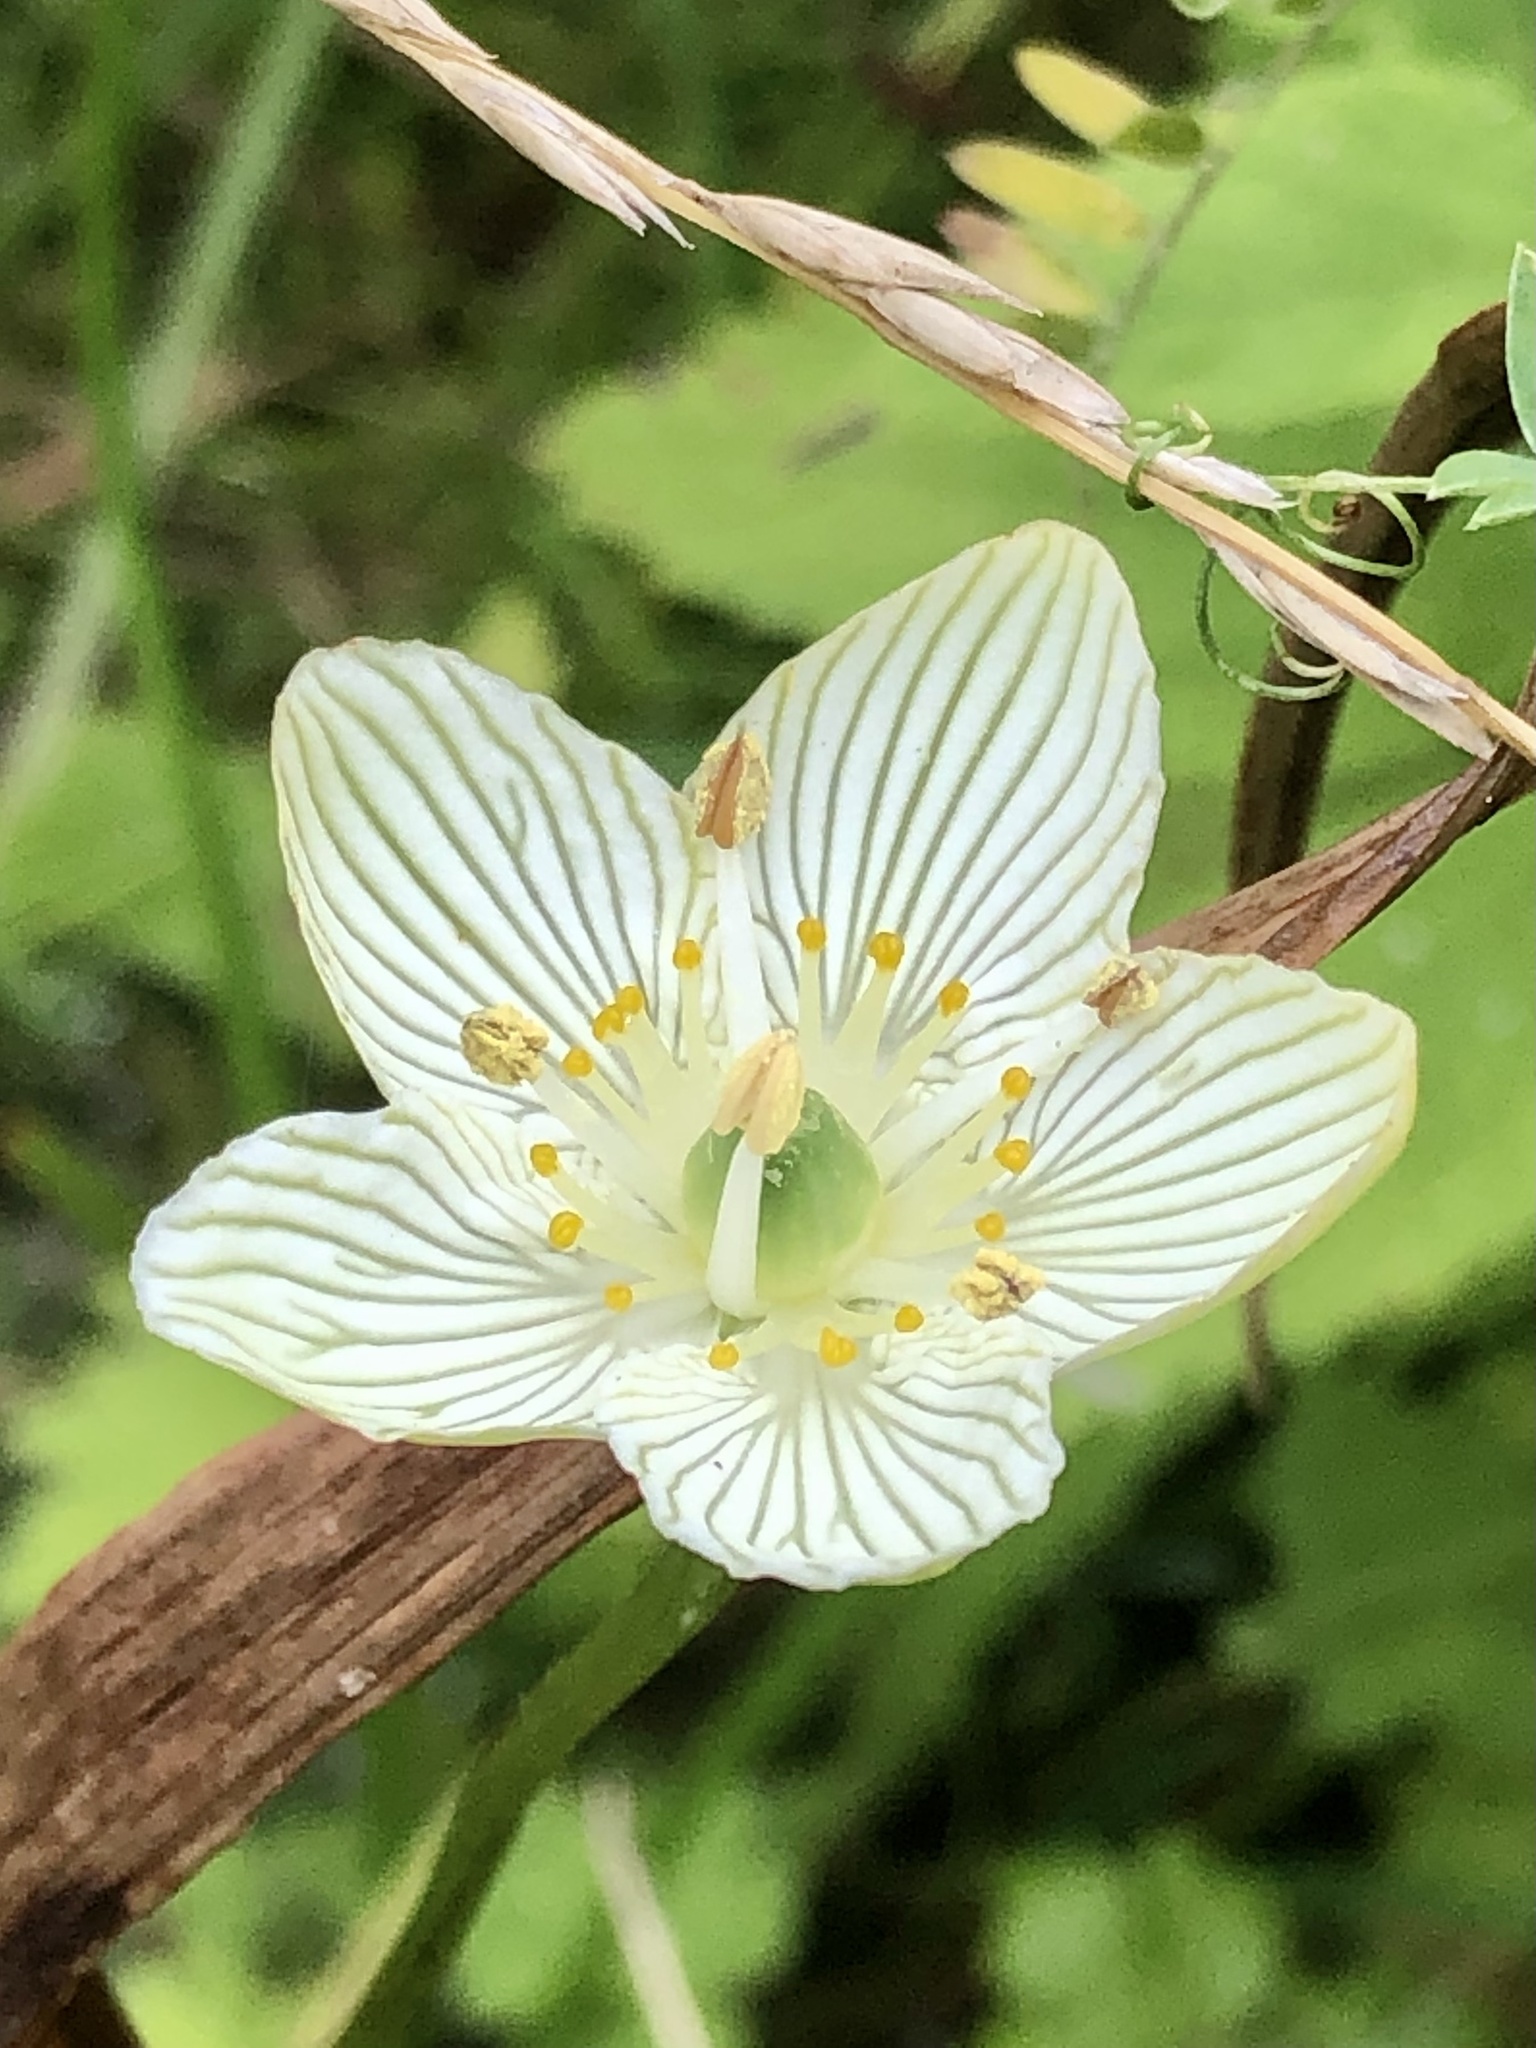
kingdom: Plantae
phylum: Tracheophyta
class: Magnoliopsida
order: Celastrales
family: Parnassiaceae
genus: Parnassia
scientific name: Parnassia glauca
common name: American grass-of-parnassus
